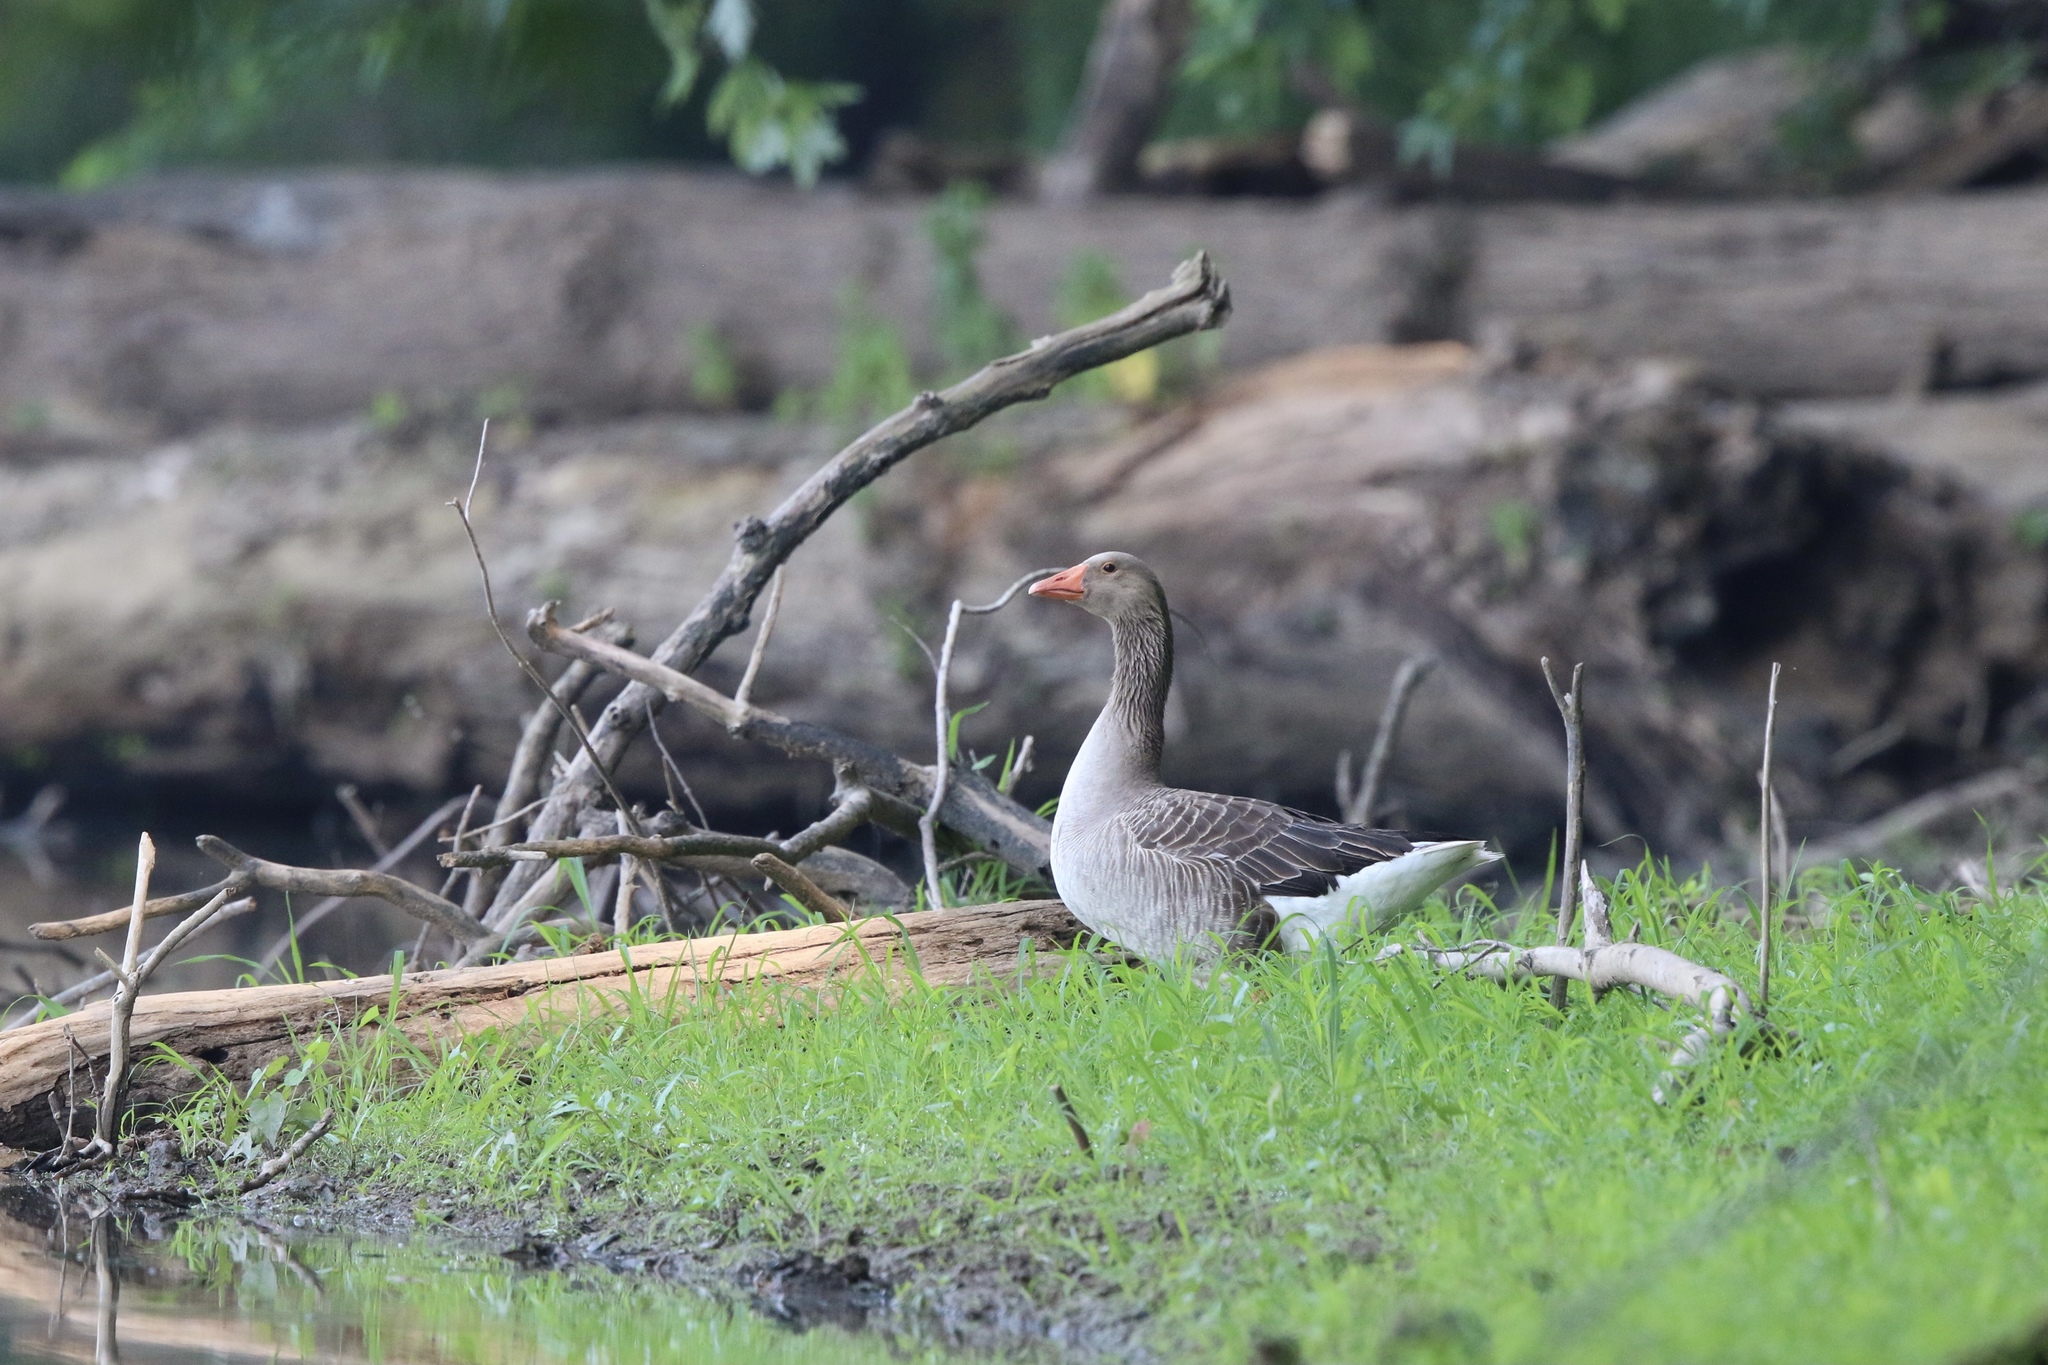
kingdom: Animalia
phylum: Chordata
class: Aves
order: Anseriformes
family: Anatidae
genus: Anser
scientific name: Anser anser
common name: Greylag goose
